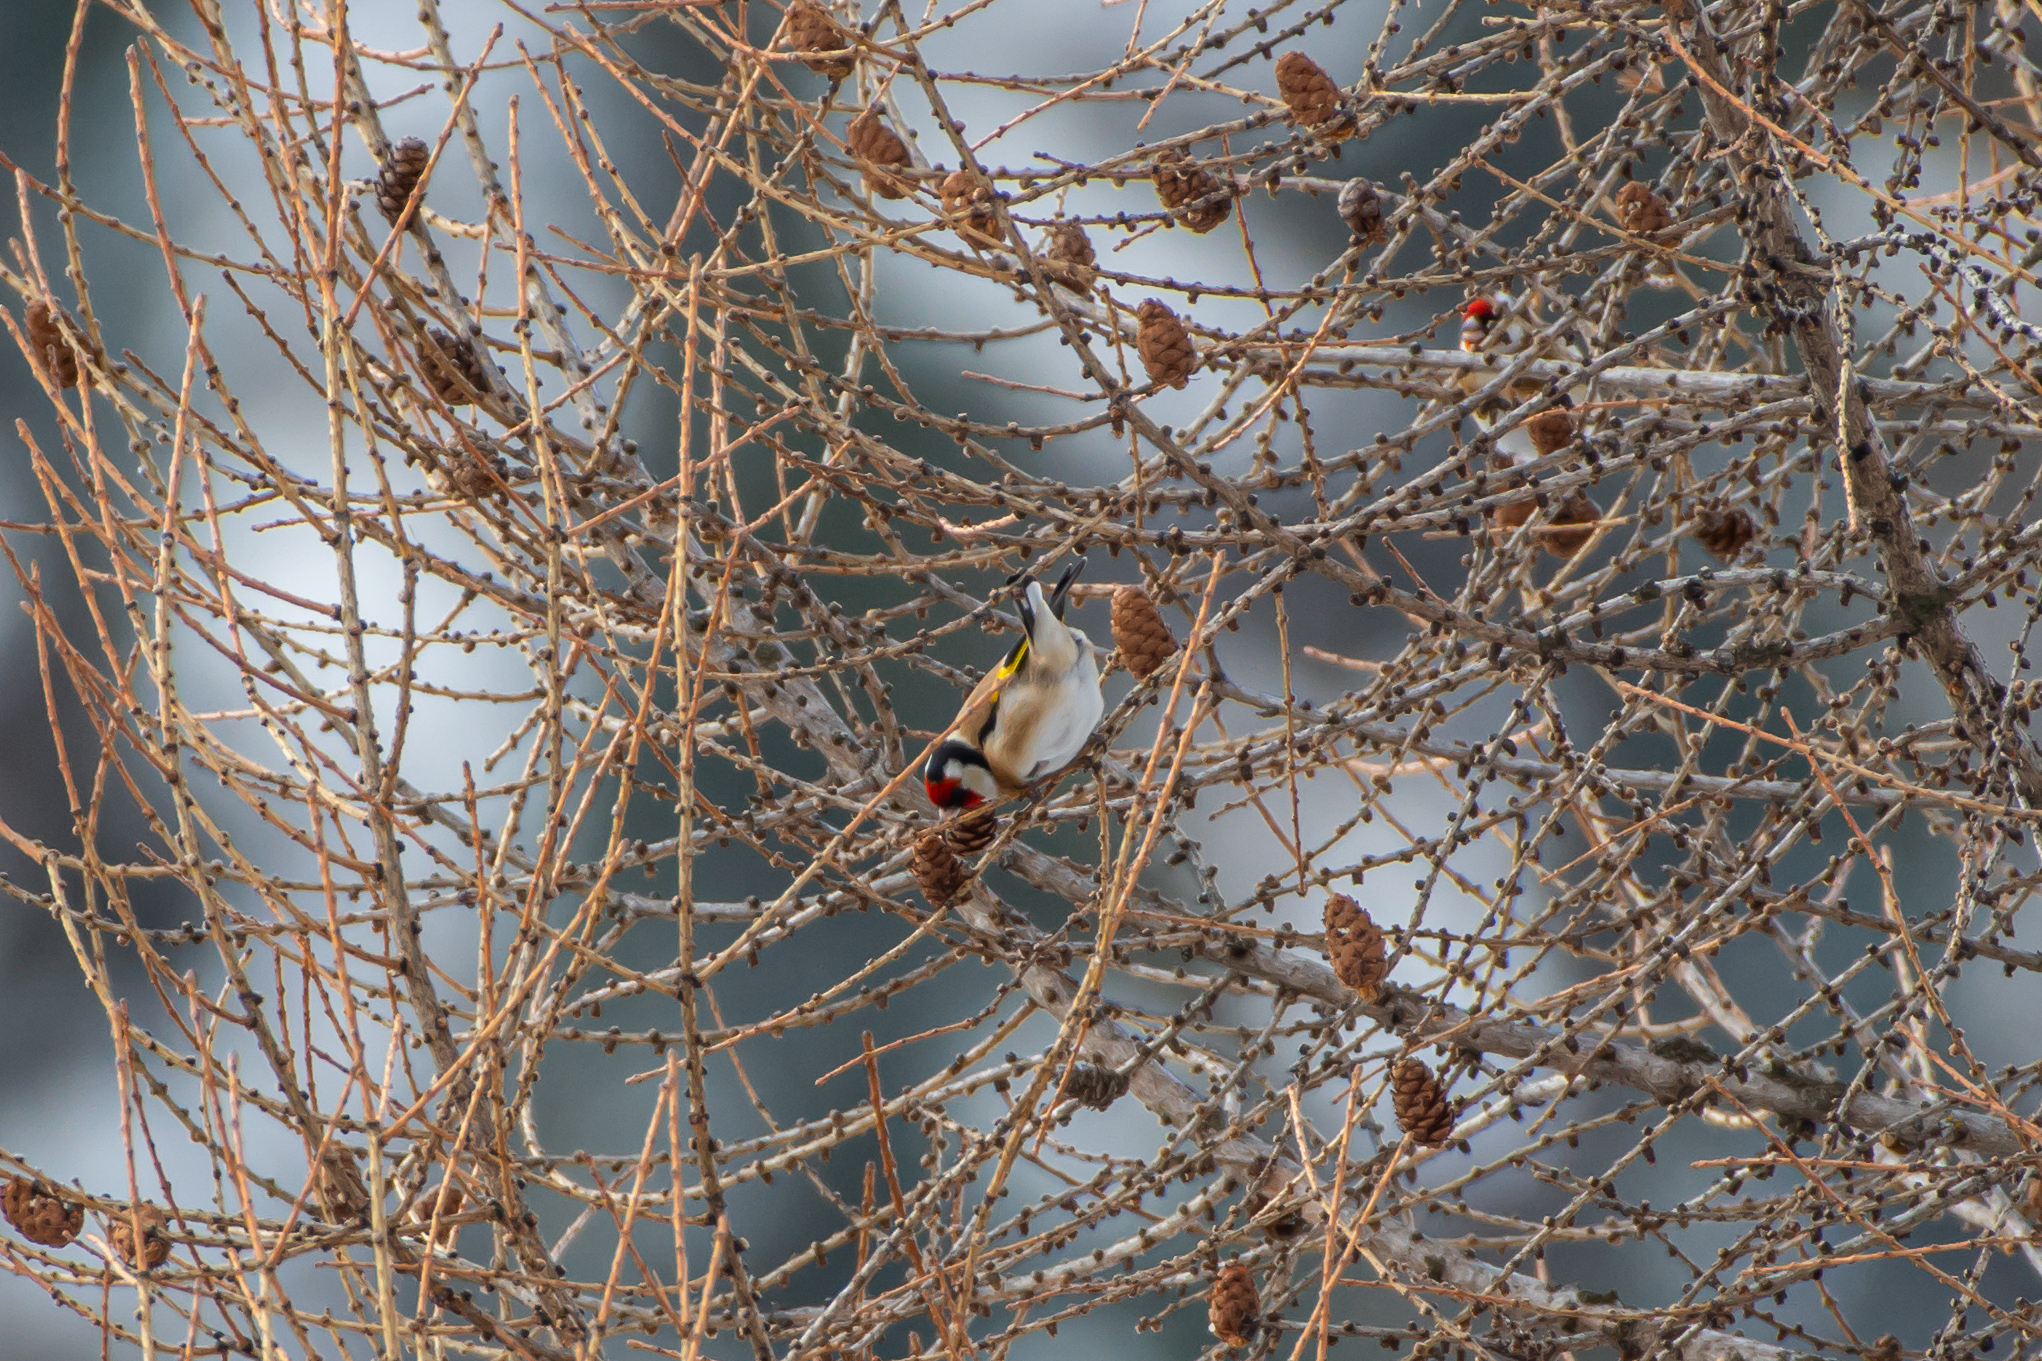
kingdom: Animalia
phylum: Chordata
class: Aves
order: Passeriformes
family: Fringillidae
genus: Carduelis
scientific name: Carduelis carduelis
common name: European goldfinch
